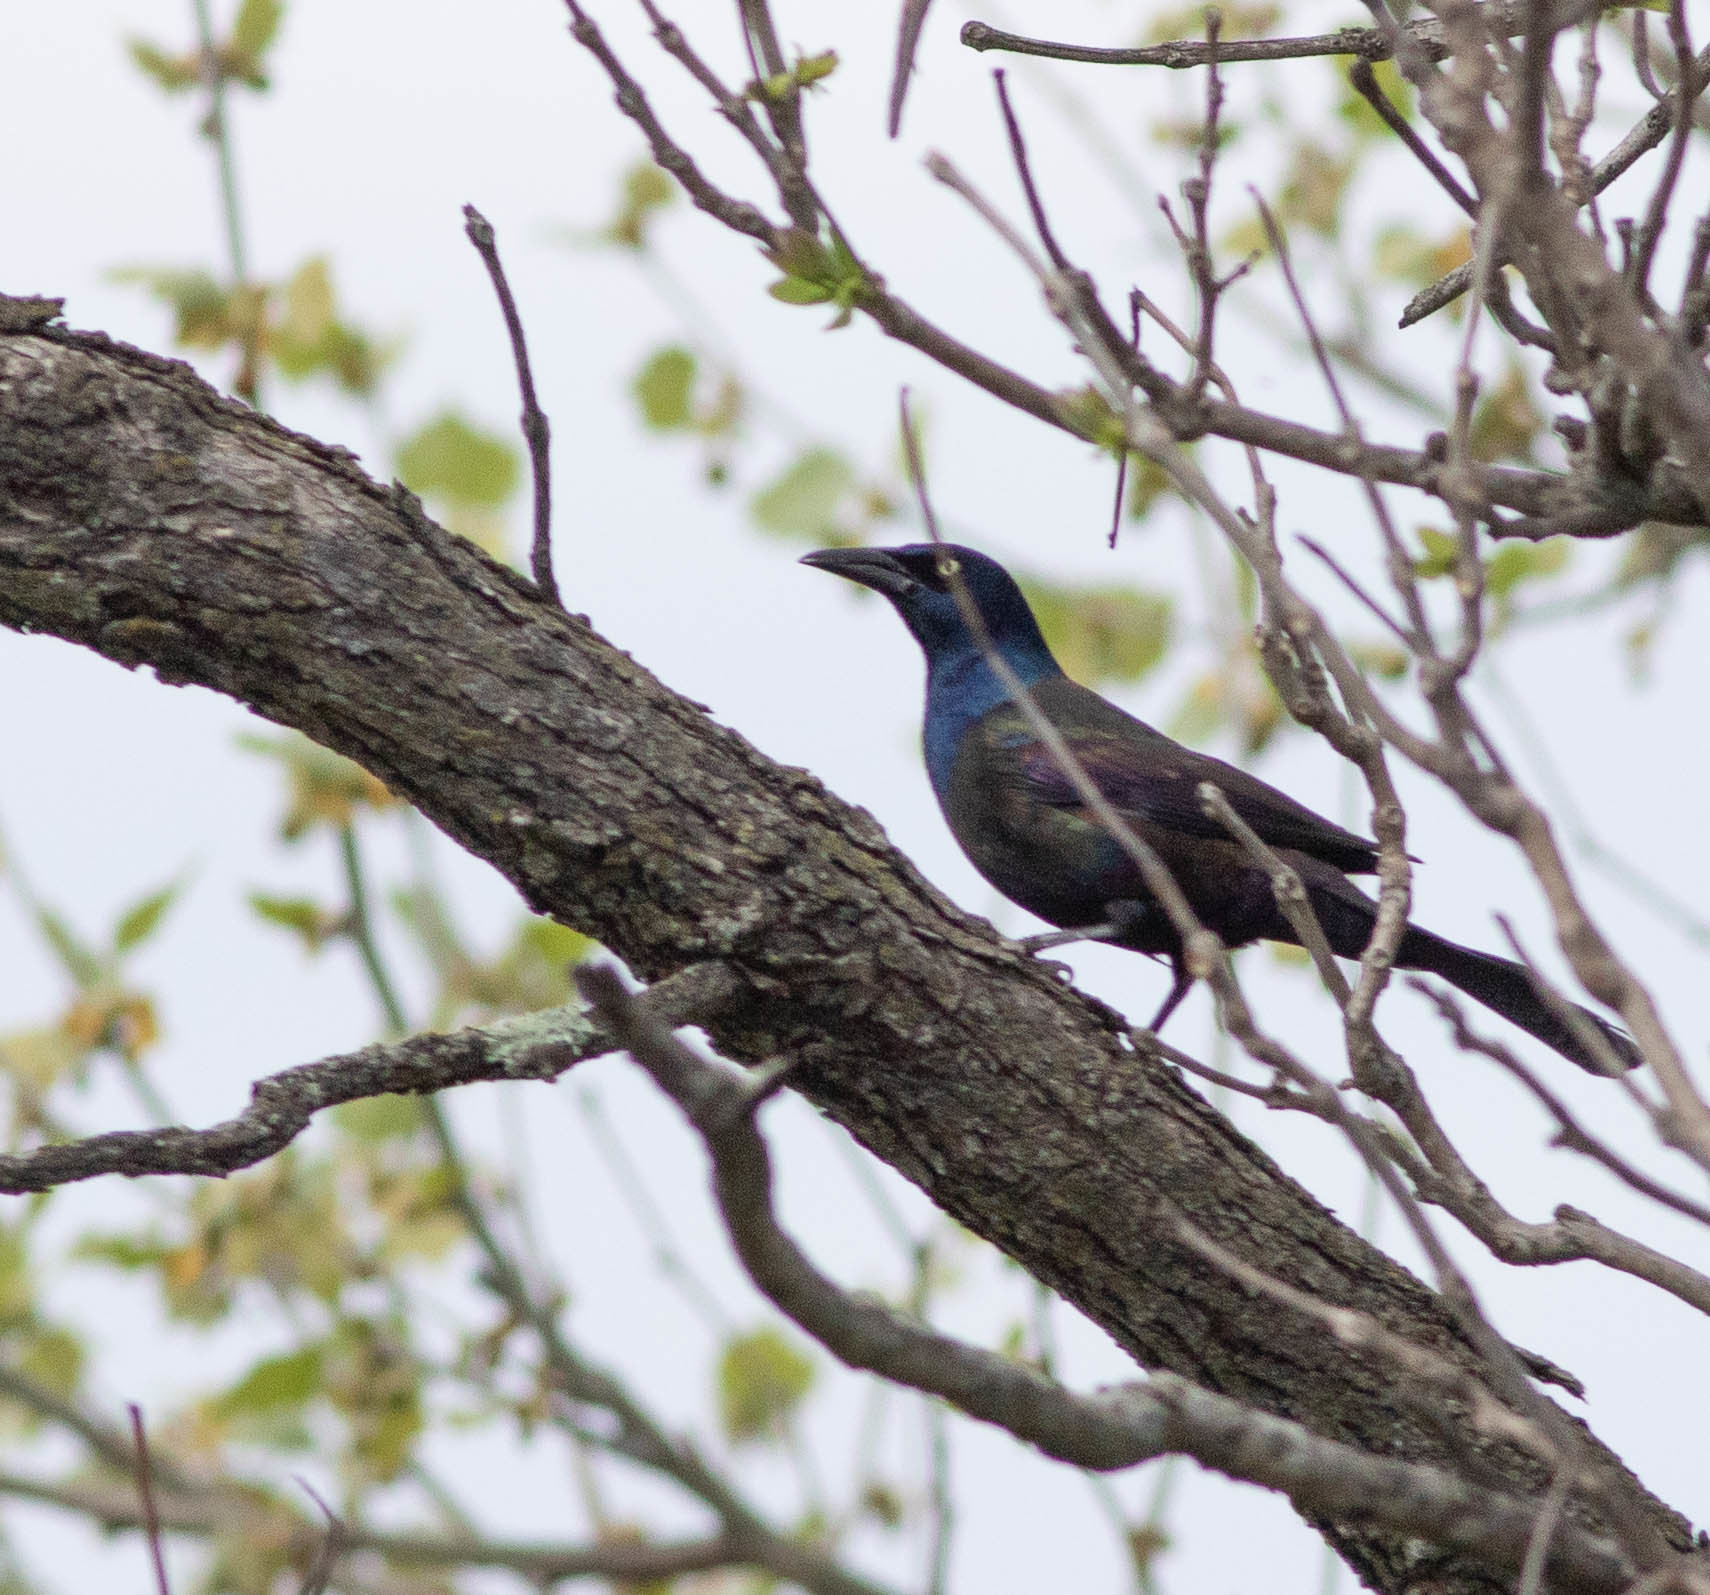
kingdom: Animalia
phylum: Chordata
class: Aves
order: Passeriformes
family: Icteridae
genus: Quiscalus
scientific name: Quiscalus quiscula
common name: Common grackle
